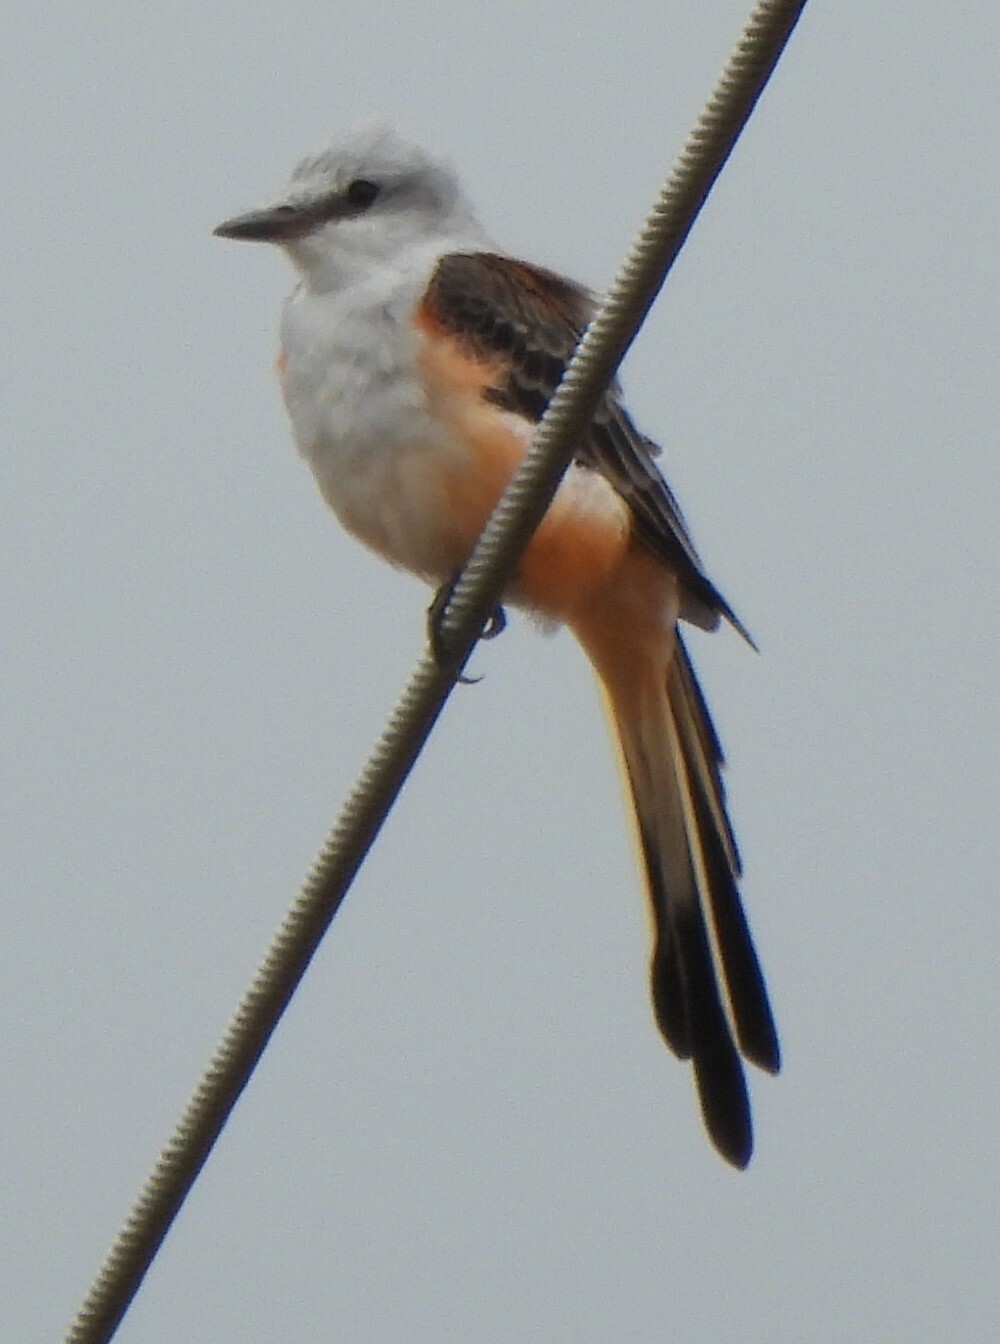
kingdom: Animalia
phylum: Chordata
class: Aves
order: Passeriformes
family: Tyrannidae
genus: Tyrannus
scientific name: Tyrannus forficatus
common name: Scissor-tailed flycatcher
